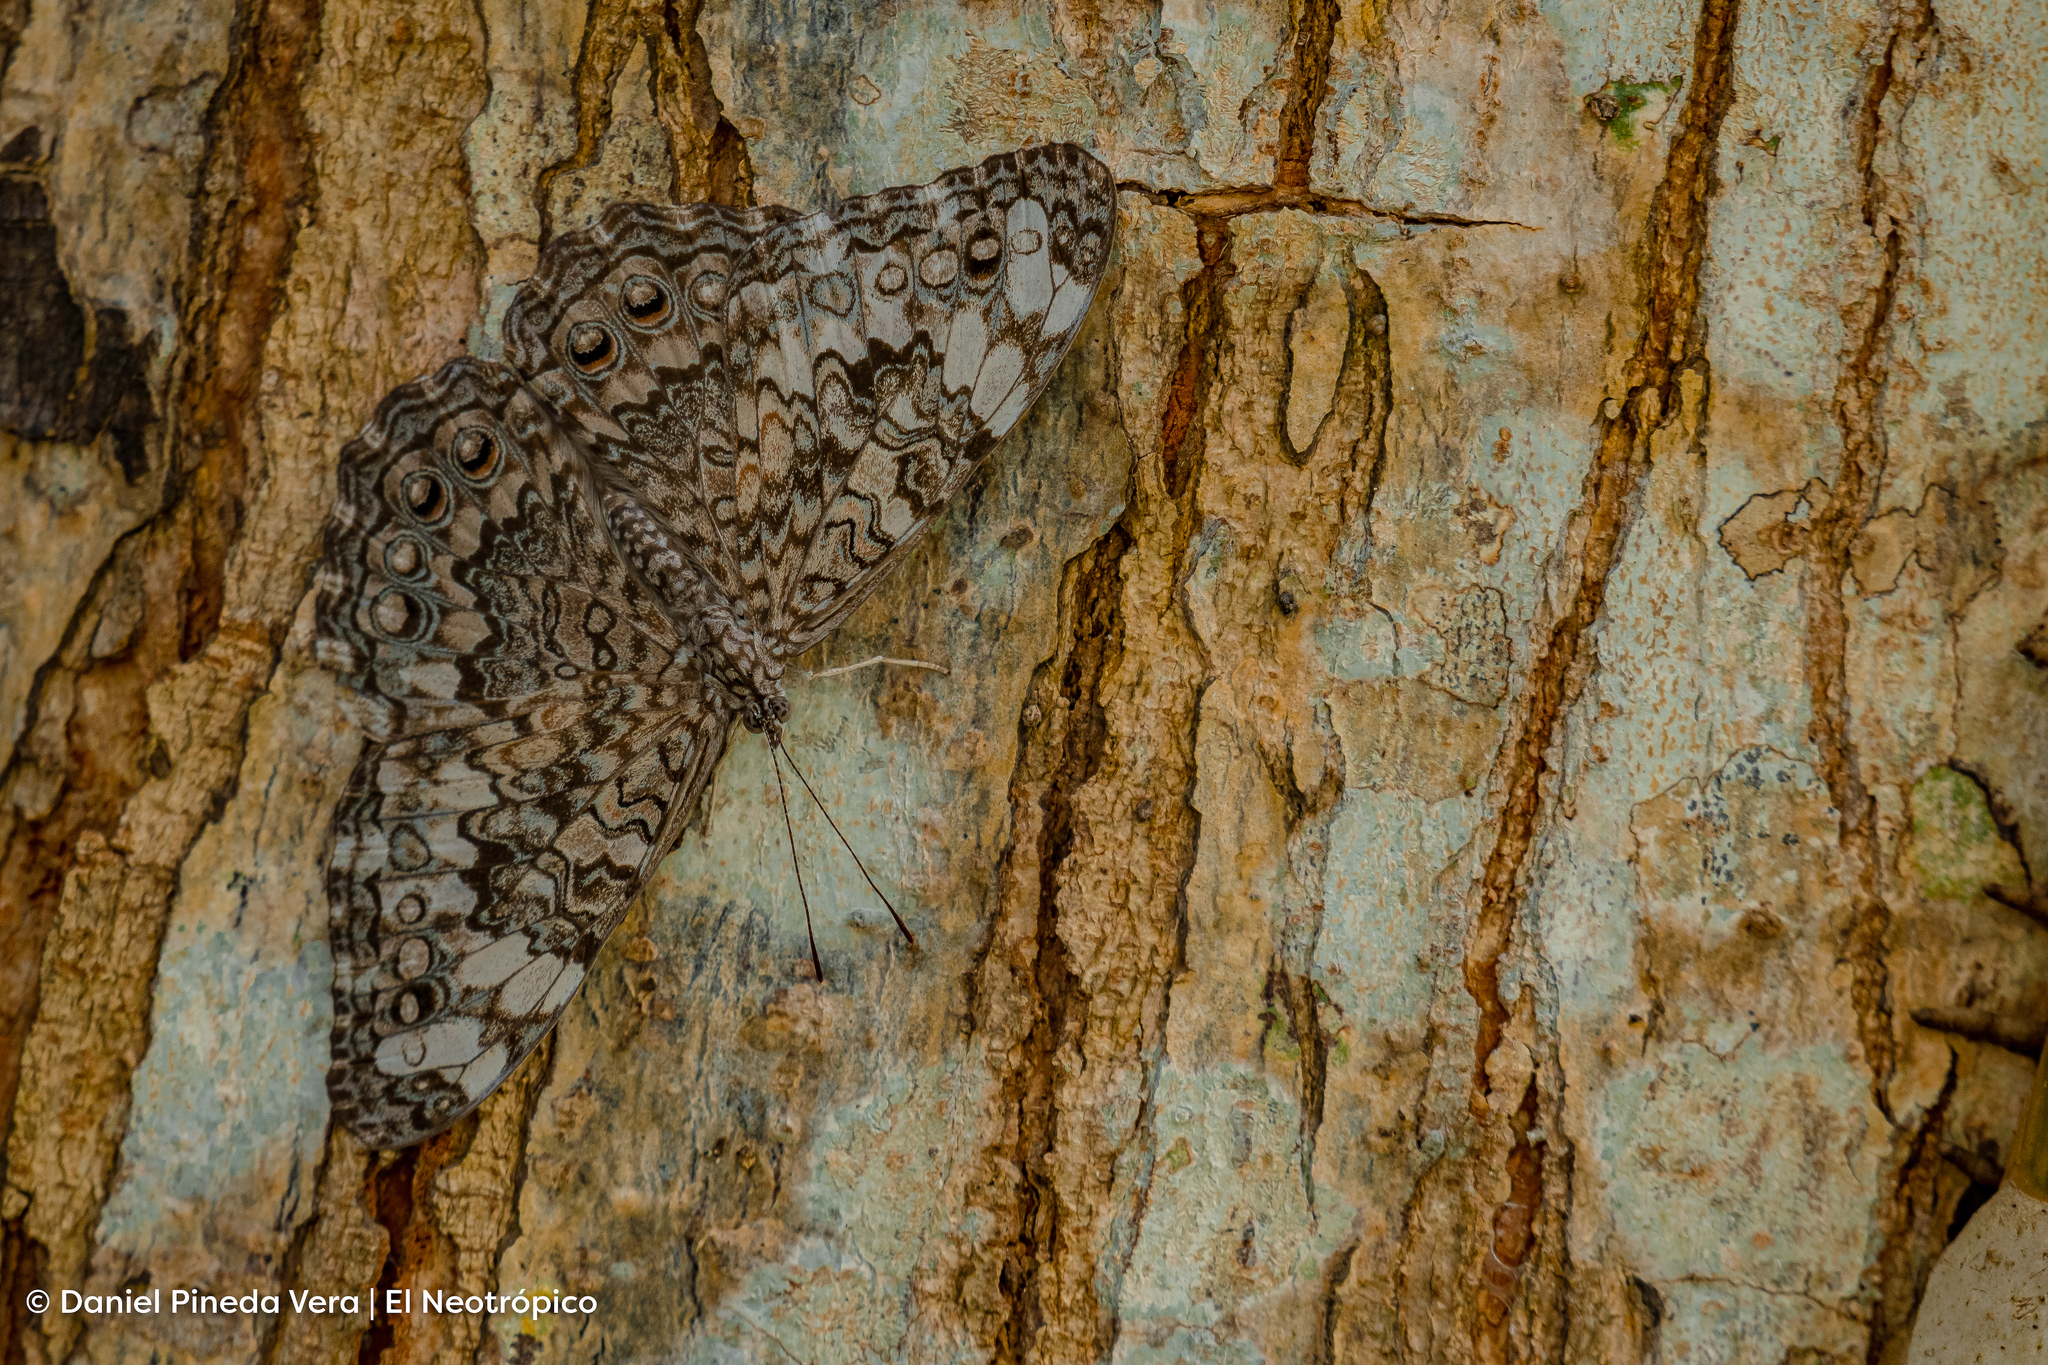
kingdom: Animalia
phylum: Arthropoda
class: Insecta
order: Lepidoptera
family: Nymphalidae
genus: Hamadryas
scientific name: Hamadryas februa
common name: Gray cracker
